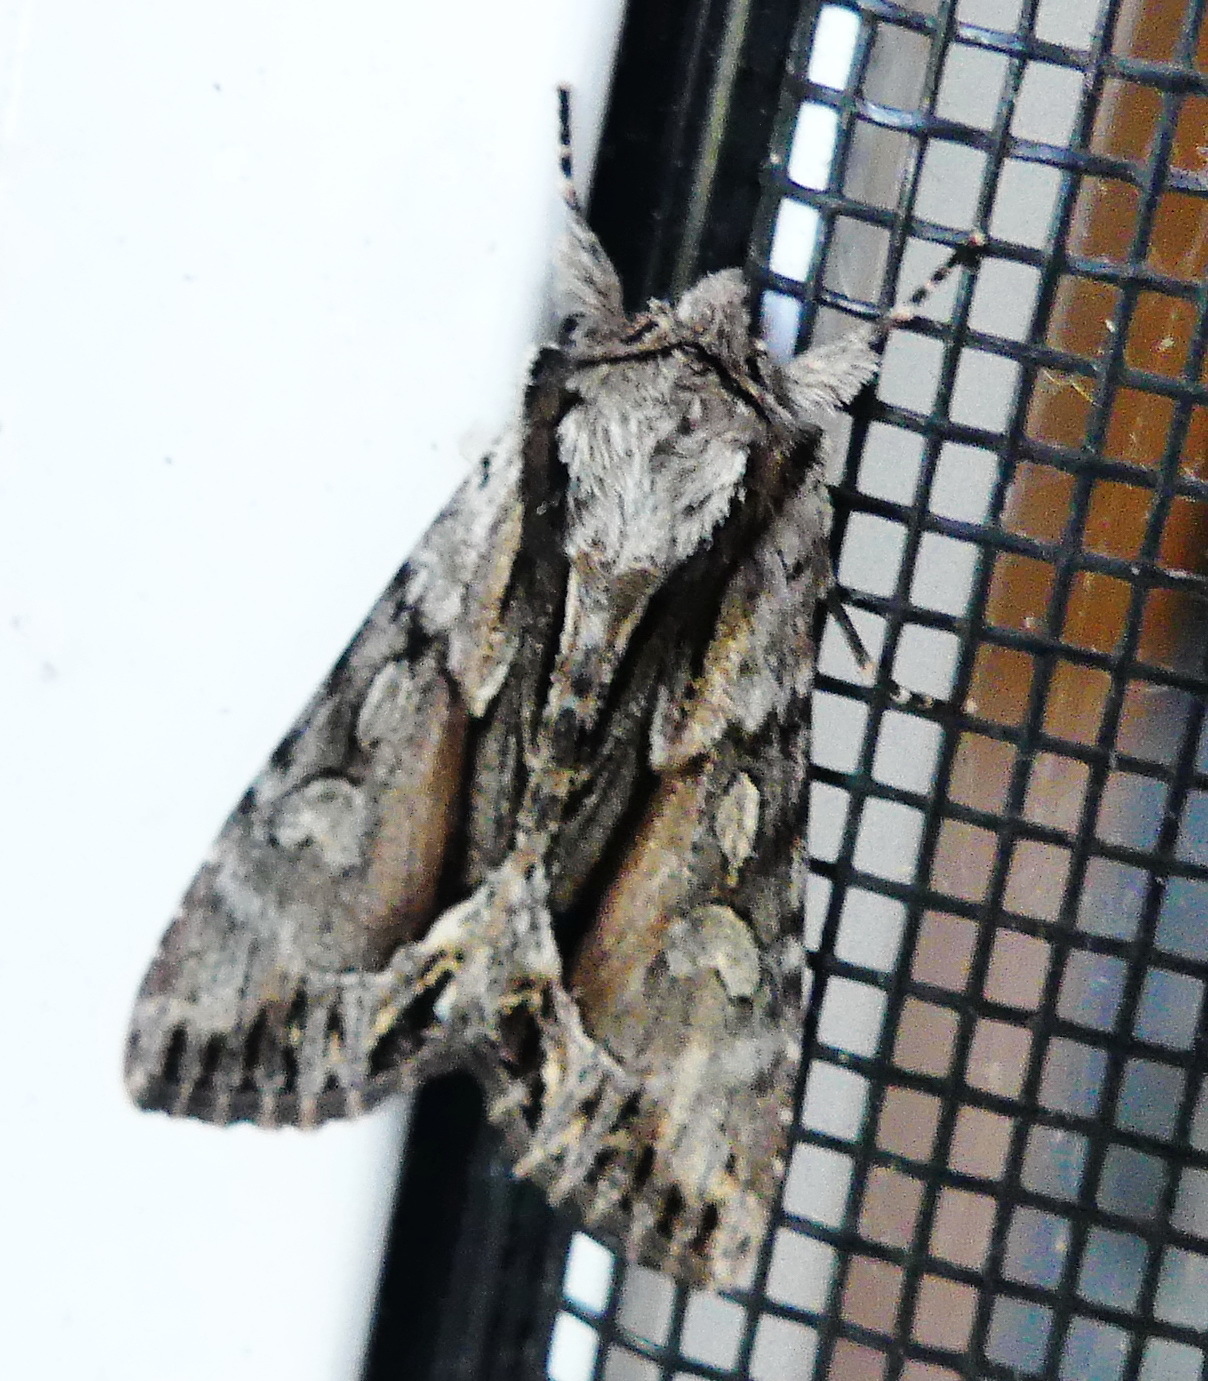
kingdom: Animalia
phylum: Arthropoda
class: Insecta
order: Lepidoptera
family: Noctuidae
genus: Hyppa
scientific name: Hyppa xylinoides
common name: Common hyppa moth
